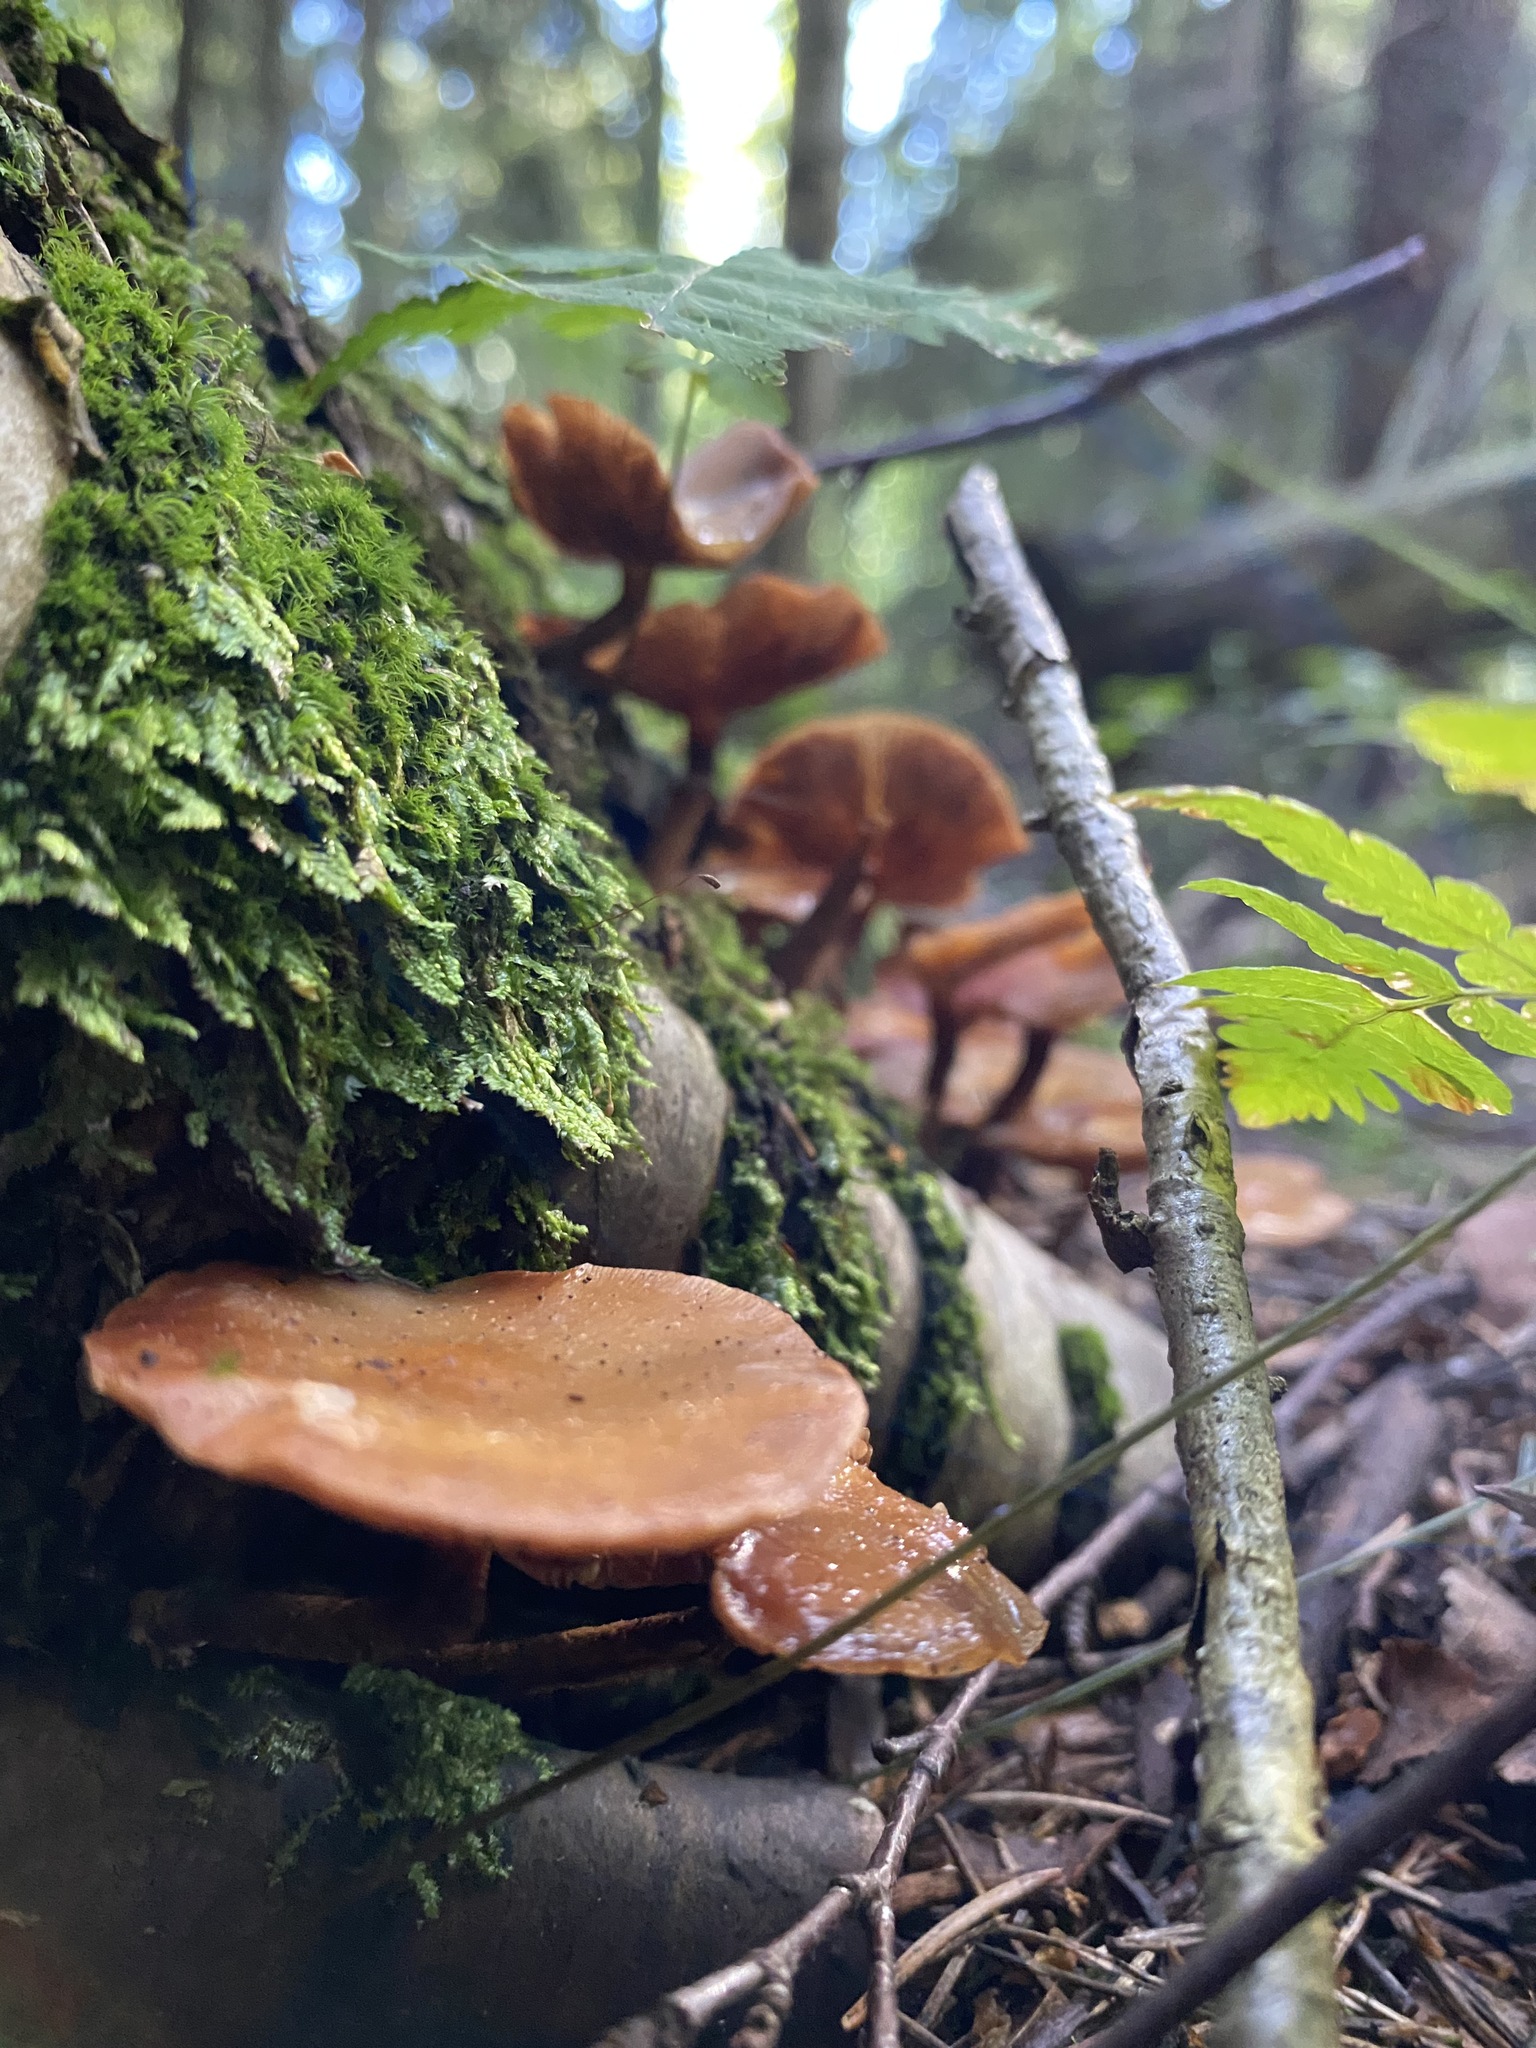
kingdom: Fungi
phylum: Basidiomycota
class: Agaricomycetes
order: Agaricales
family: Strophariaceae
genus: Kuehneromyces
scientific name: Kuehneromyces mutabilis
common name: Sheathed woodtuft
